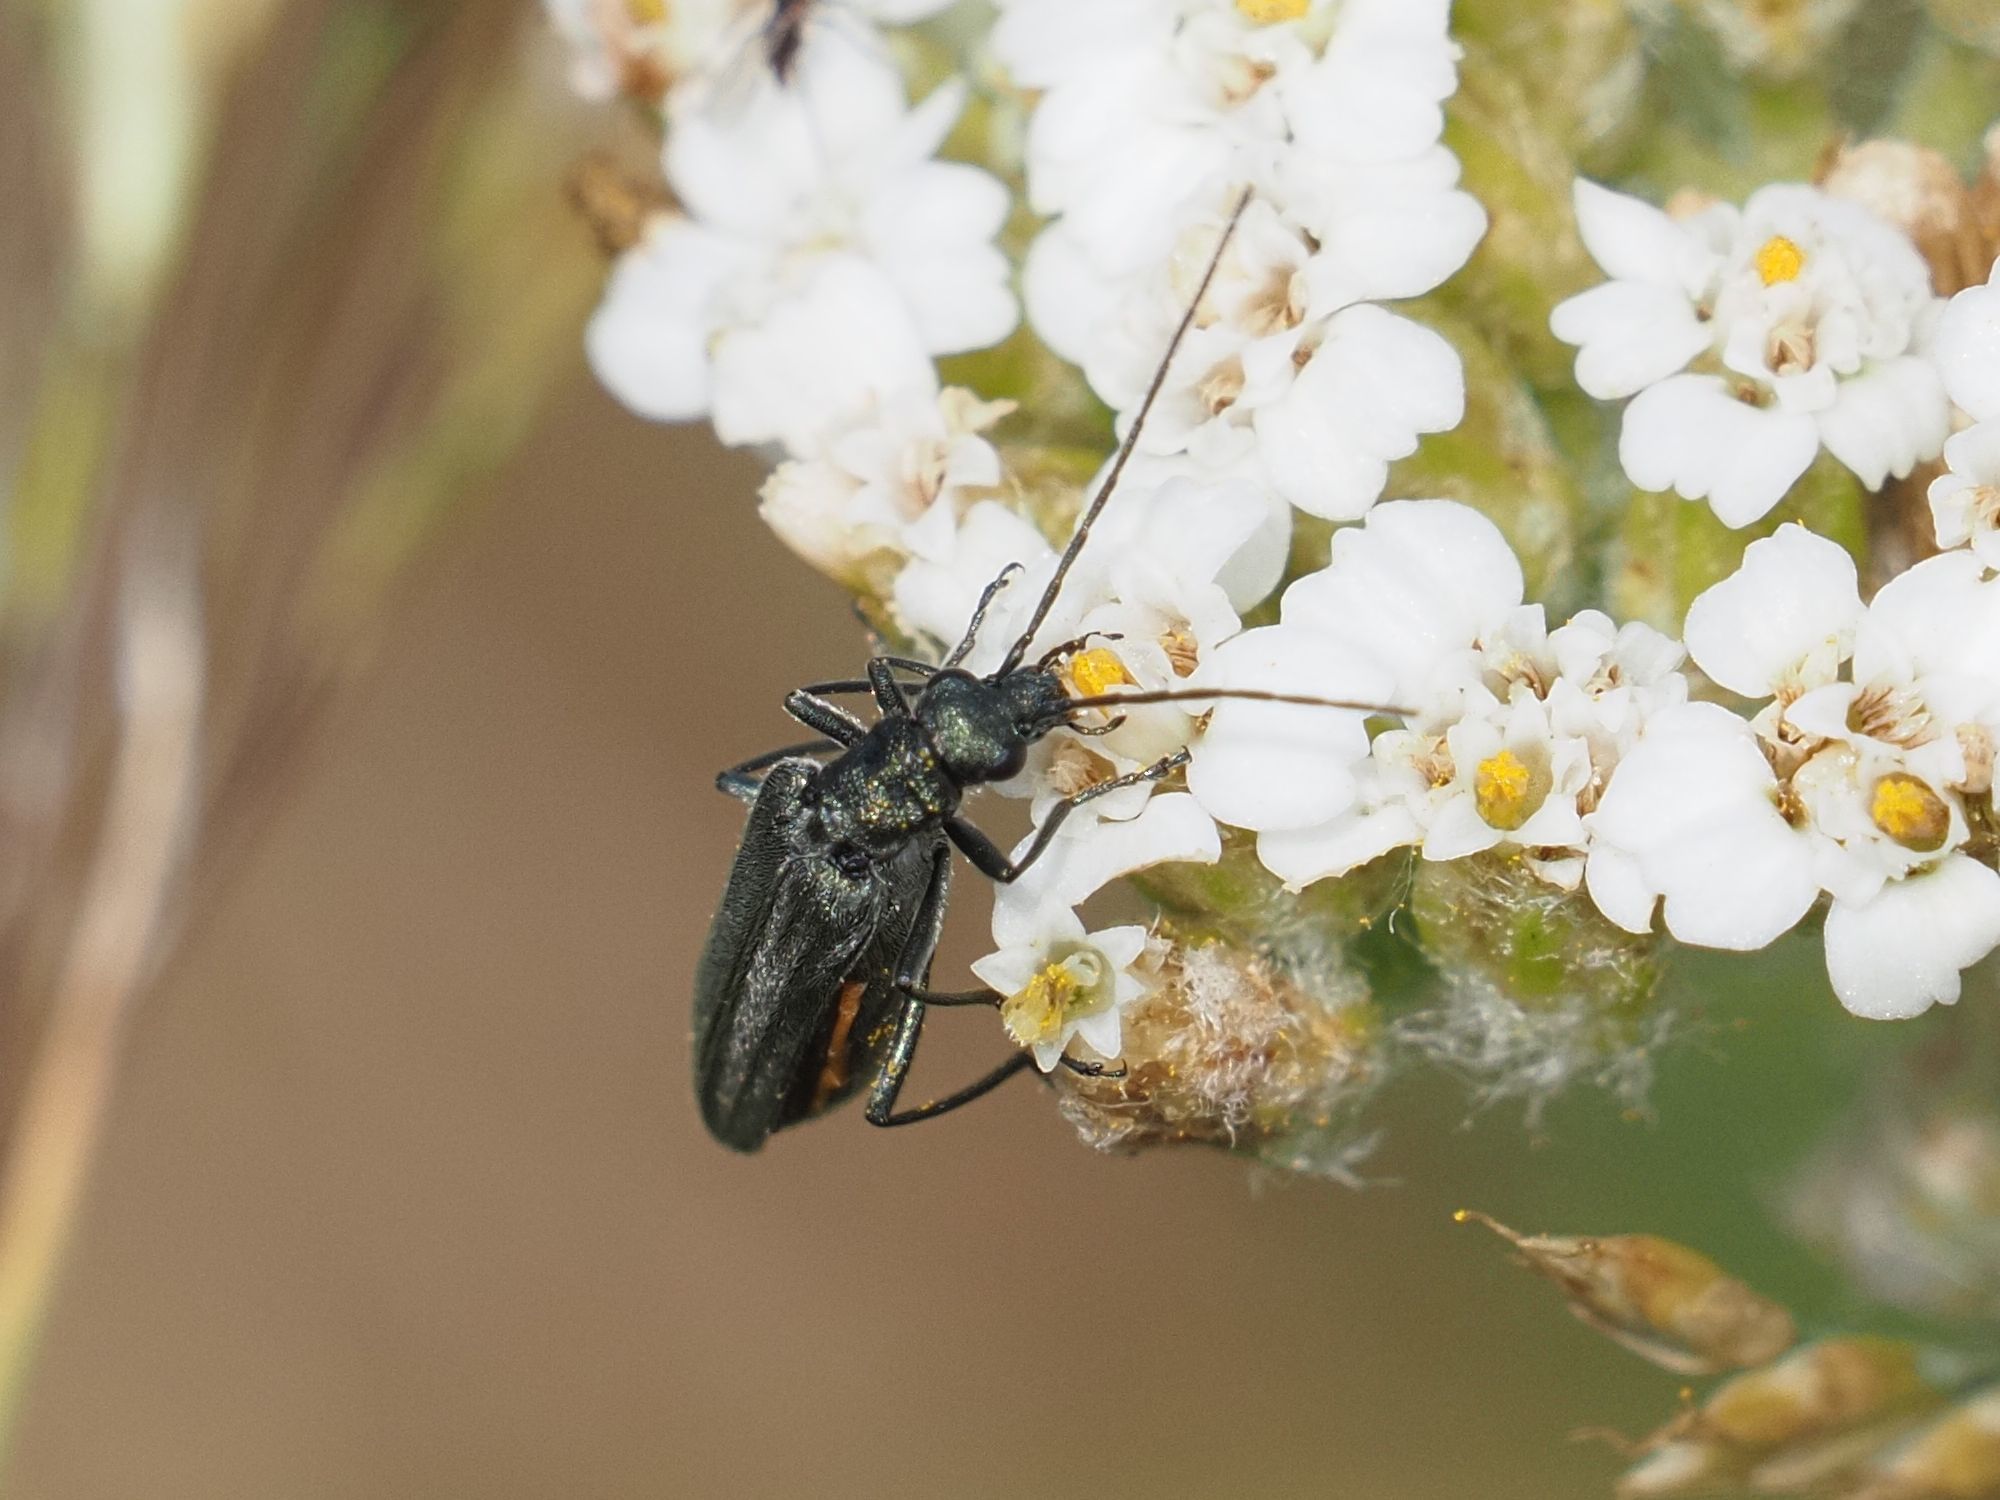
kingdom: Animalia
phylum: Arthropoda
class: Insecta
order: Coleoptera
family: Oedemeridae
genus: Oedemera
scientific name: Oedemera lurida
